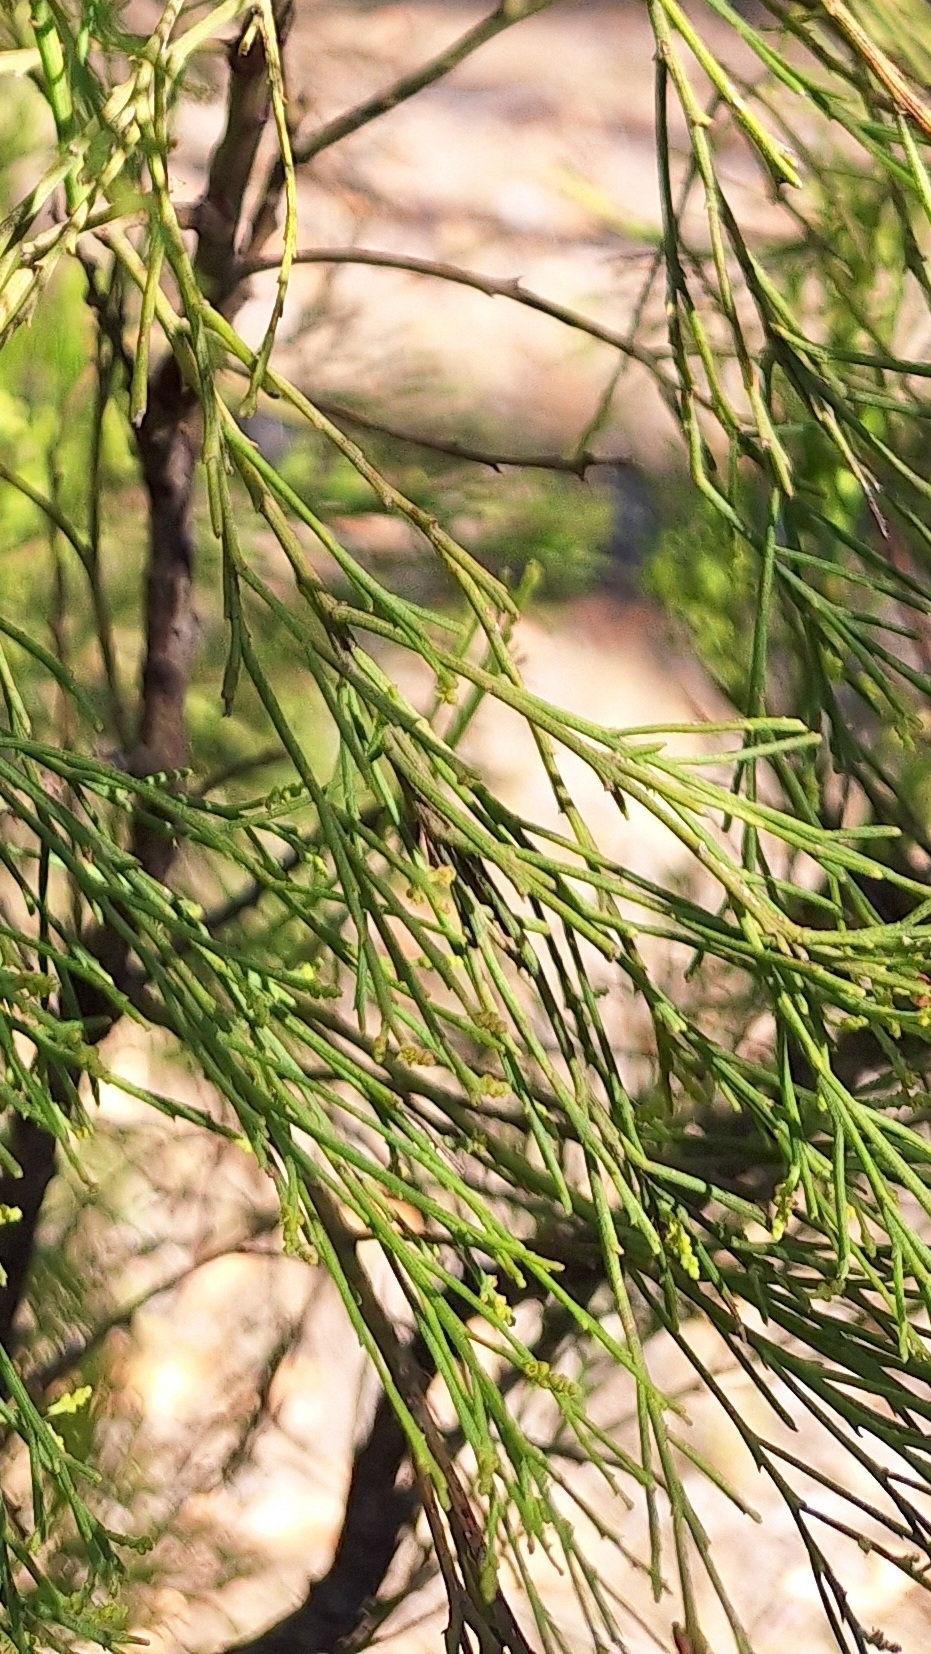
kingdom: Plantae
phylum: Tracheophyta
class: Magnoliopsida
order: Santalales
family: Santalaceae
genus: Exocarpos
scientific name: Exocarpos cupressiformis
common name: Cherry ballart
